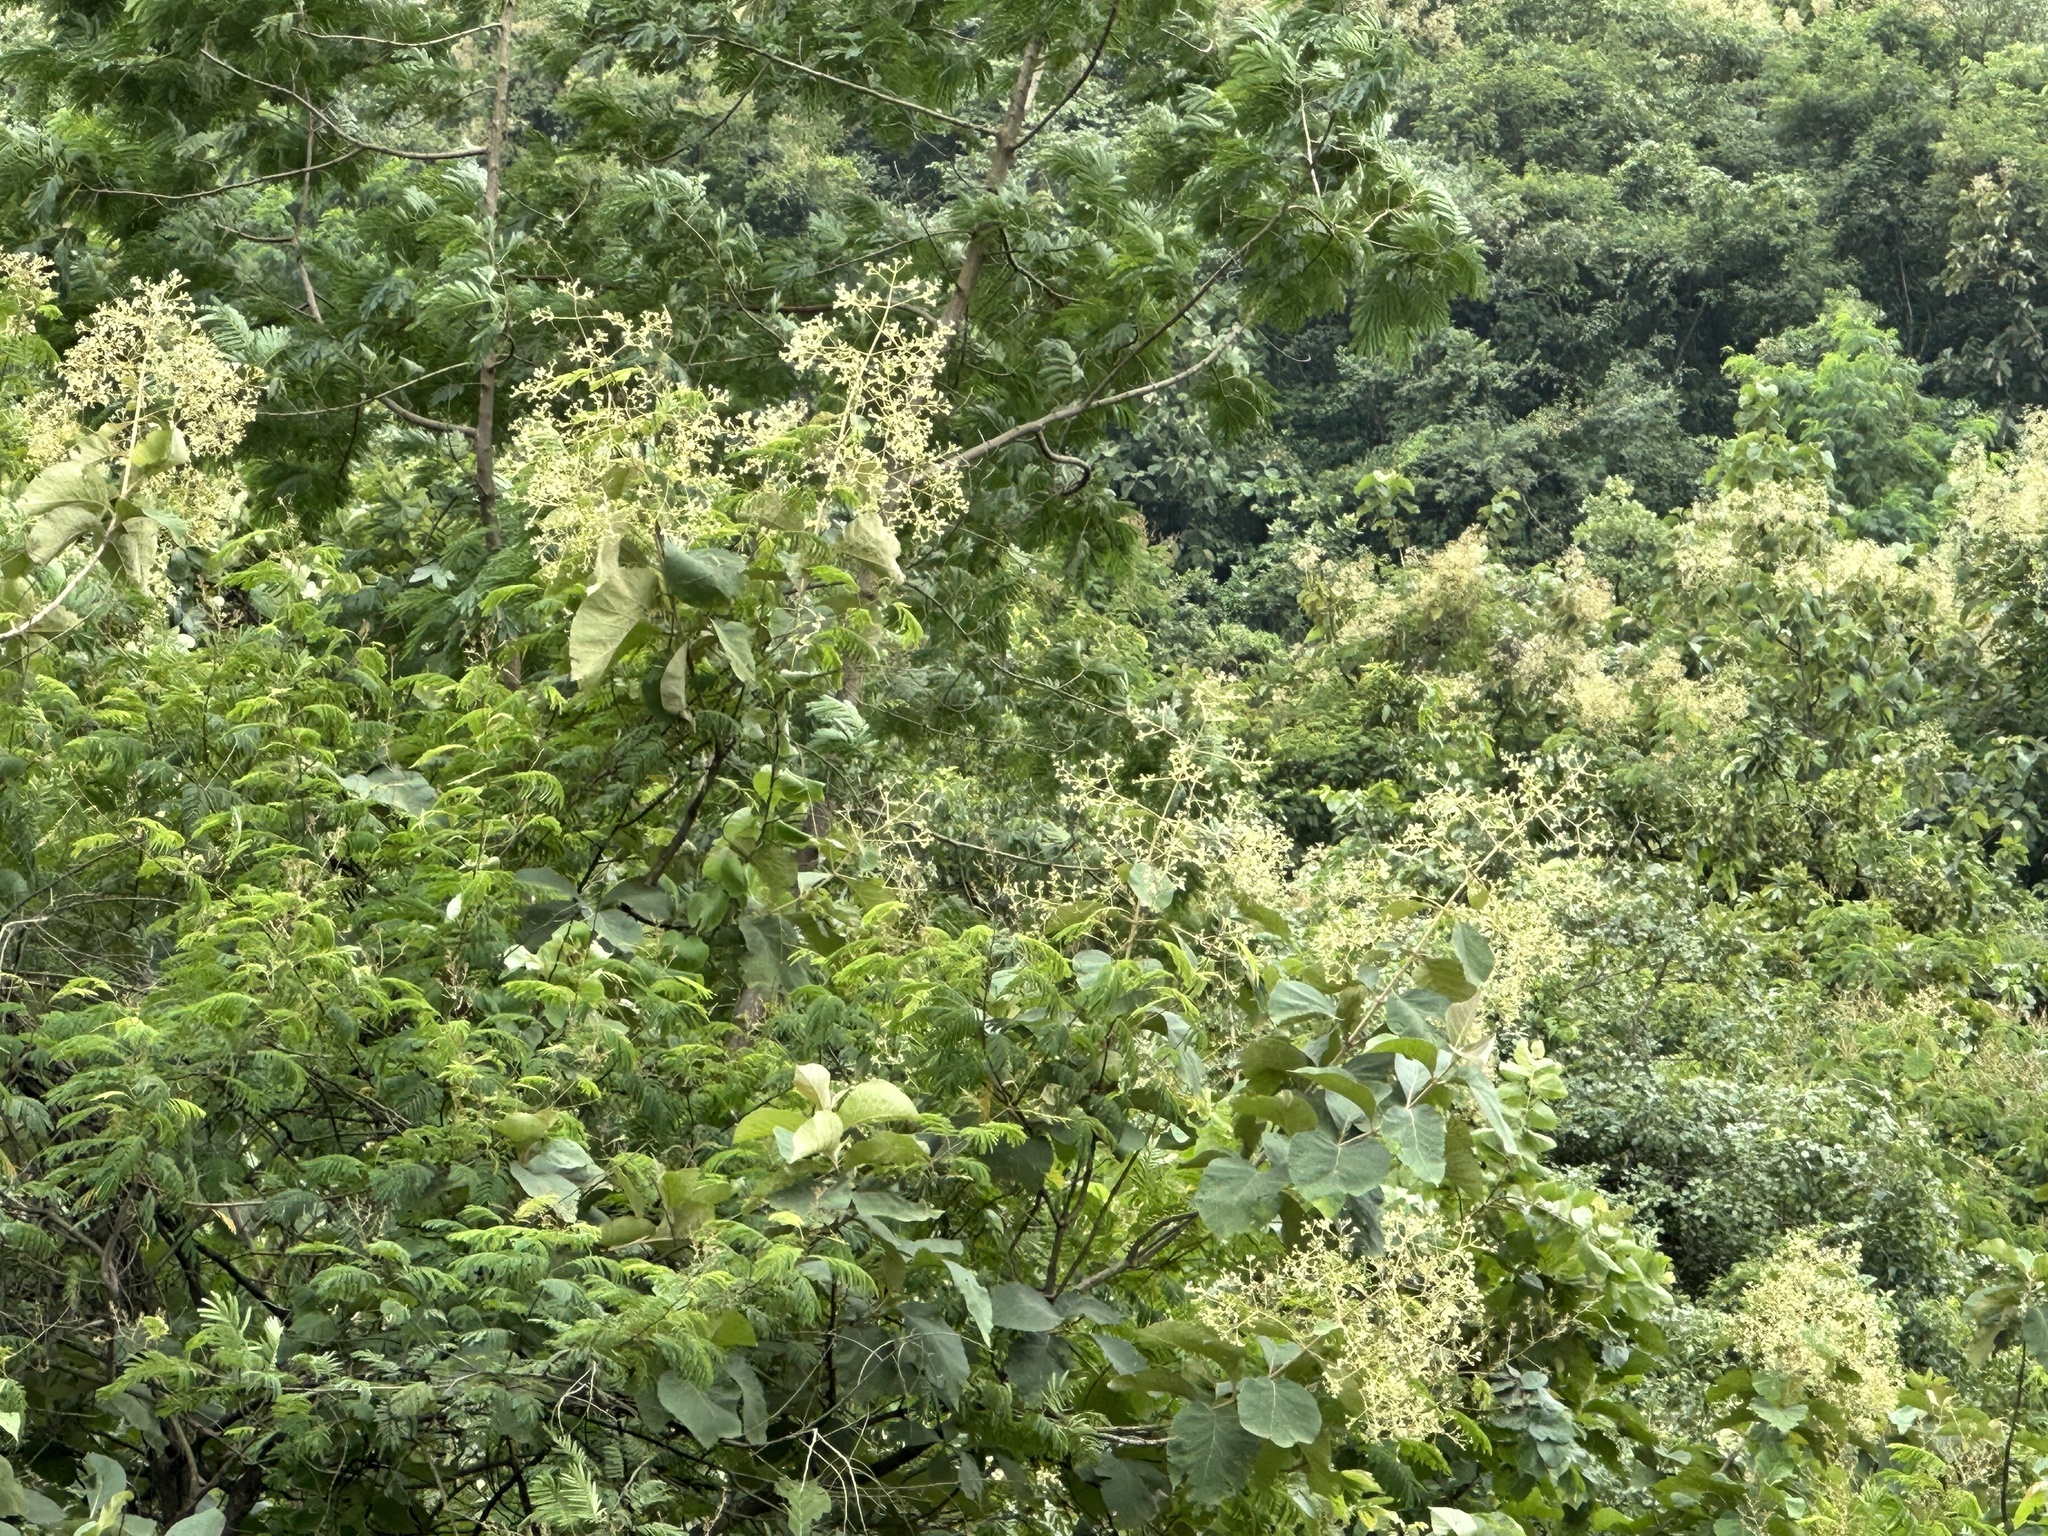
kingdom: Plantae
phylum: Tracheophyta
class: Magnoliopsida
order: Lamiales
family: Lamiaceae
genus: Tectona
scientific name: Tectona grandis
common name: Teak
